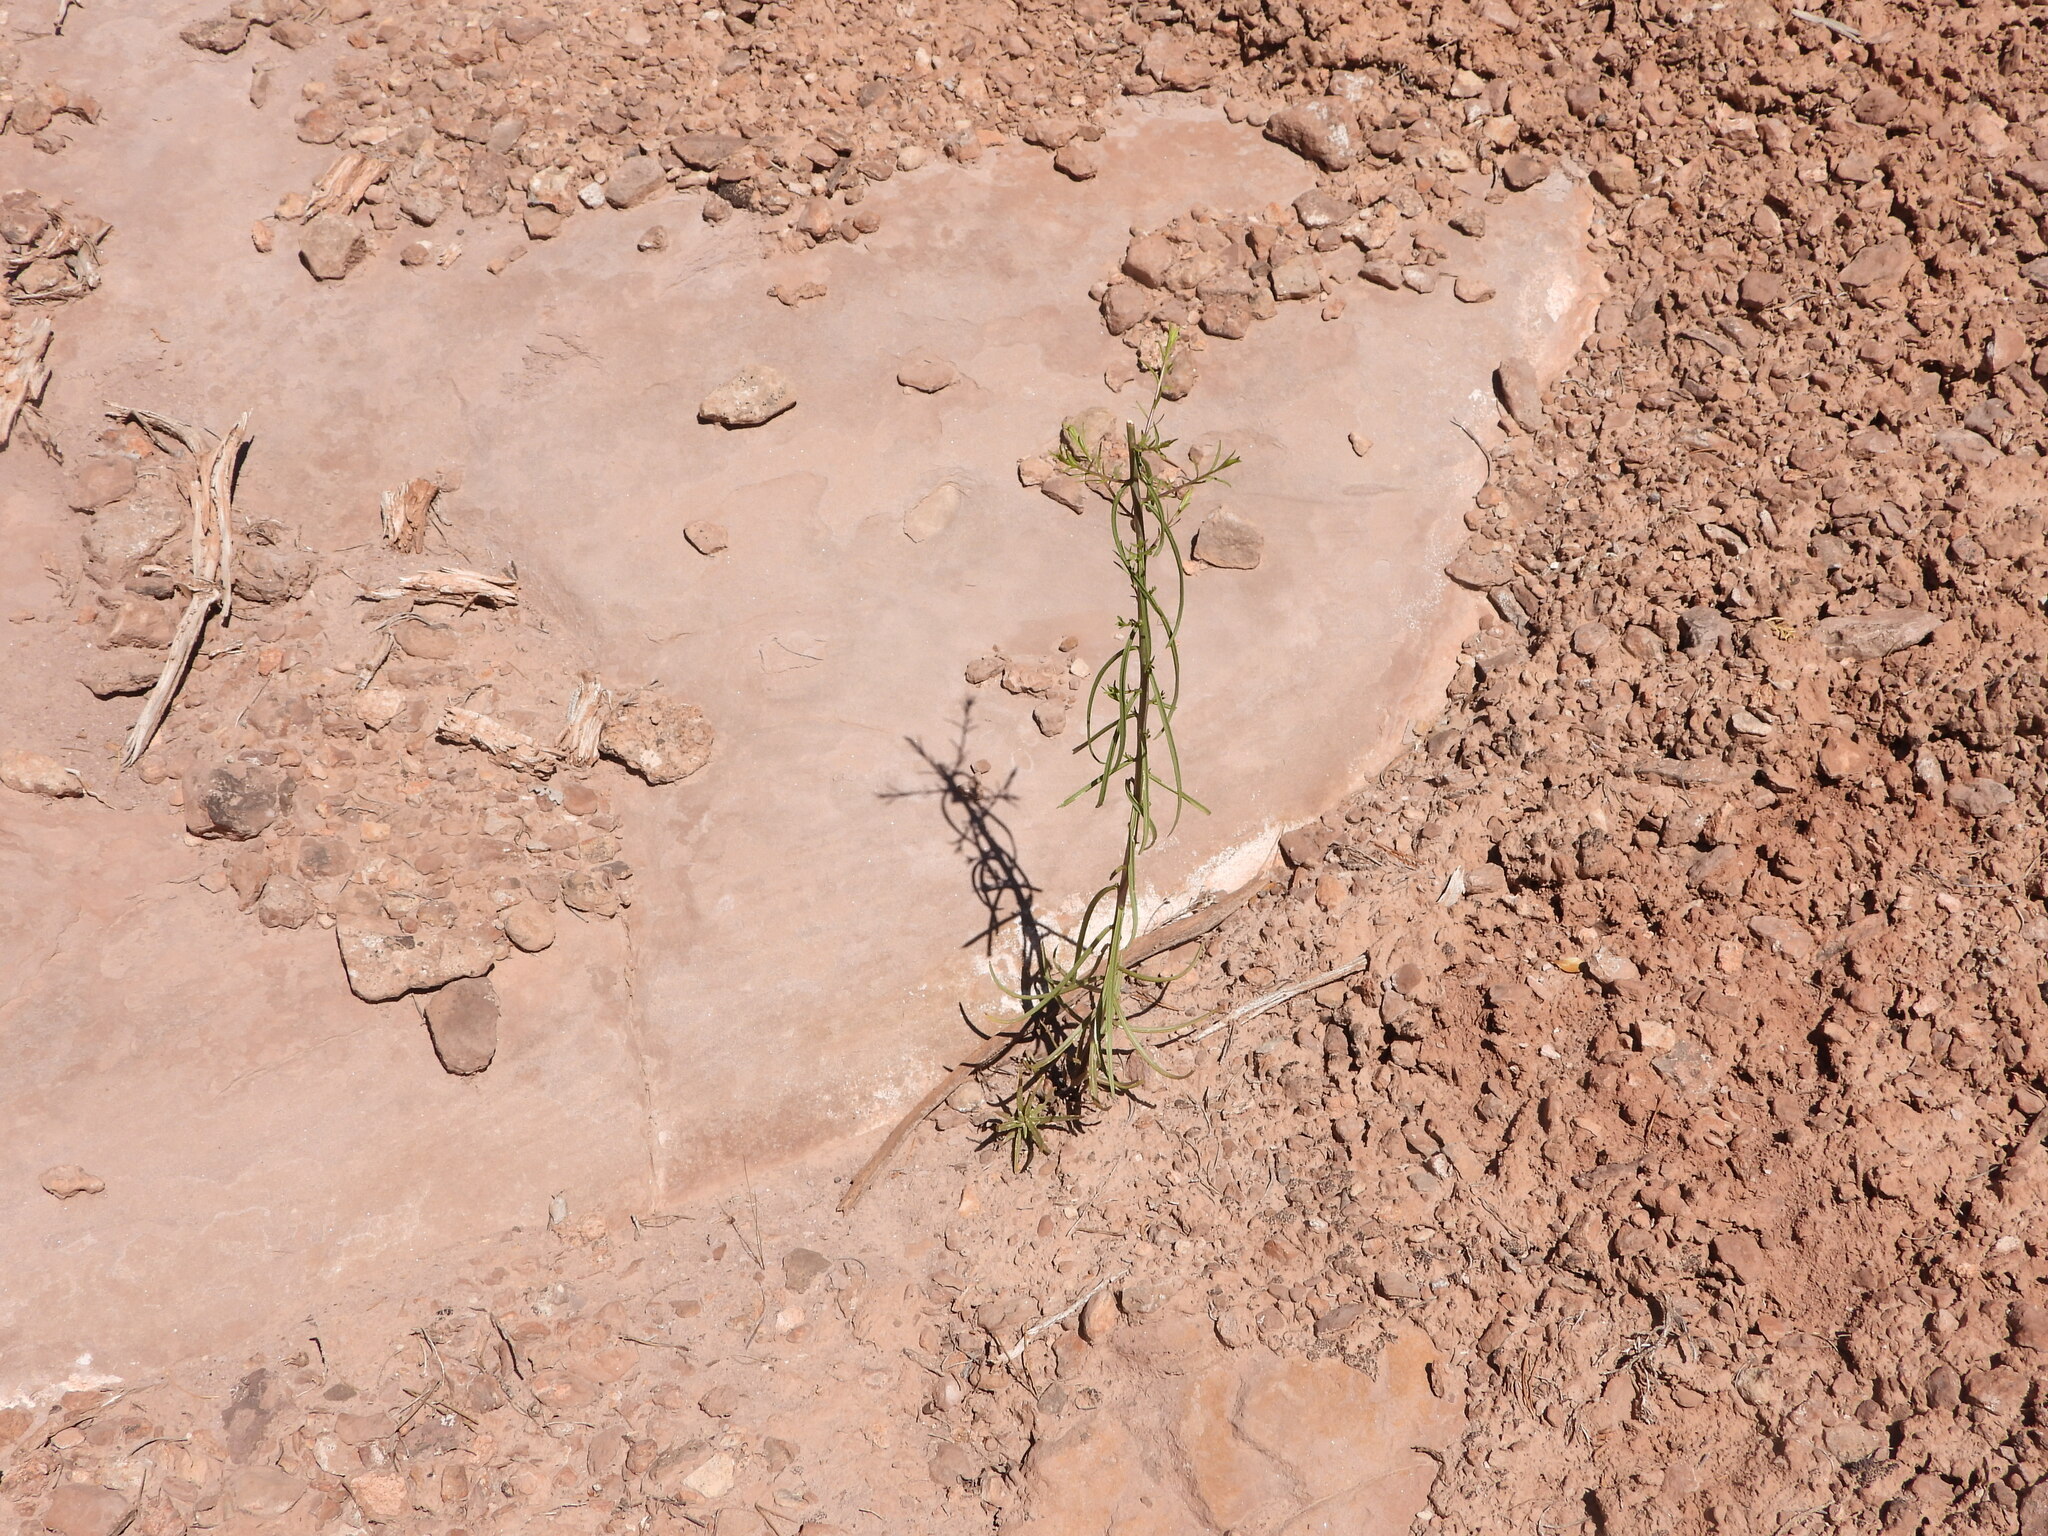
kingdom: Plantae
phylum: Tracheophyta
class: Magnoliopsida
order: Lamiales
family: Orobanchaceae
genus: Castilleja
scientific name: Castilleja linariifolia
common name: Wyoming paintbrush
